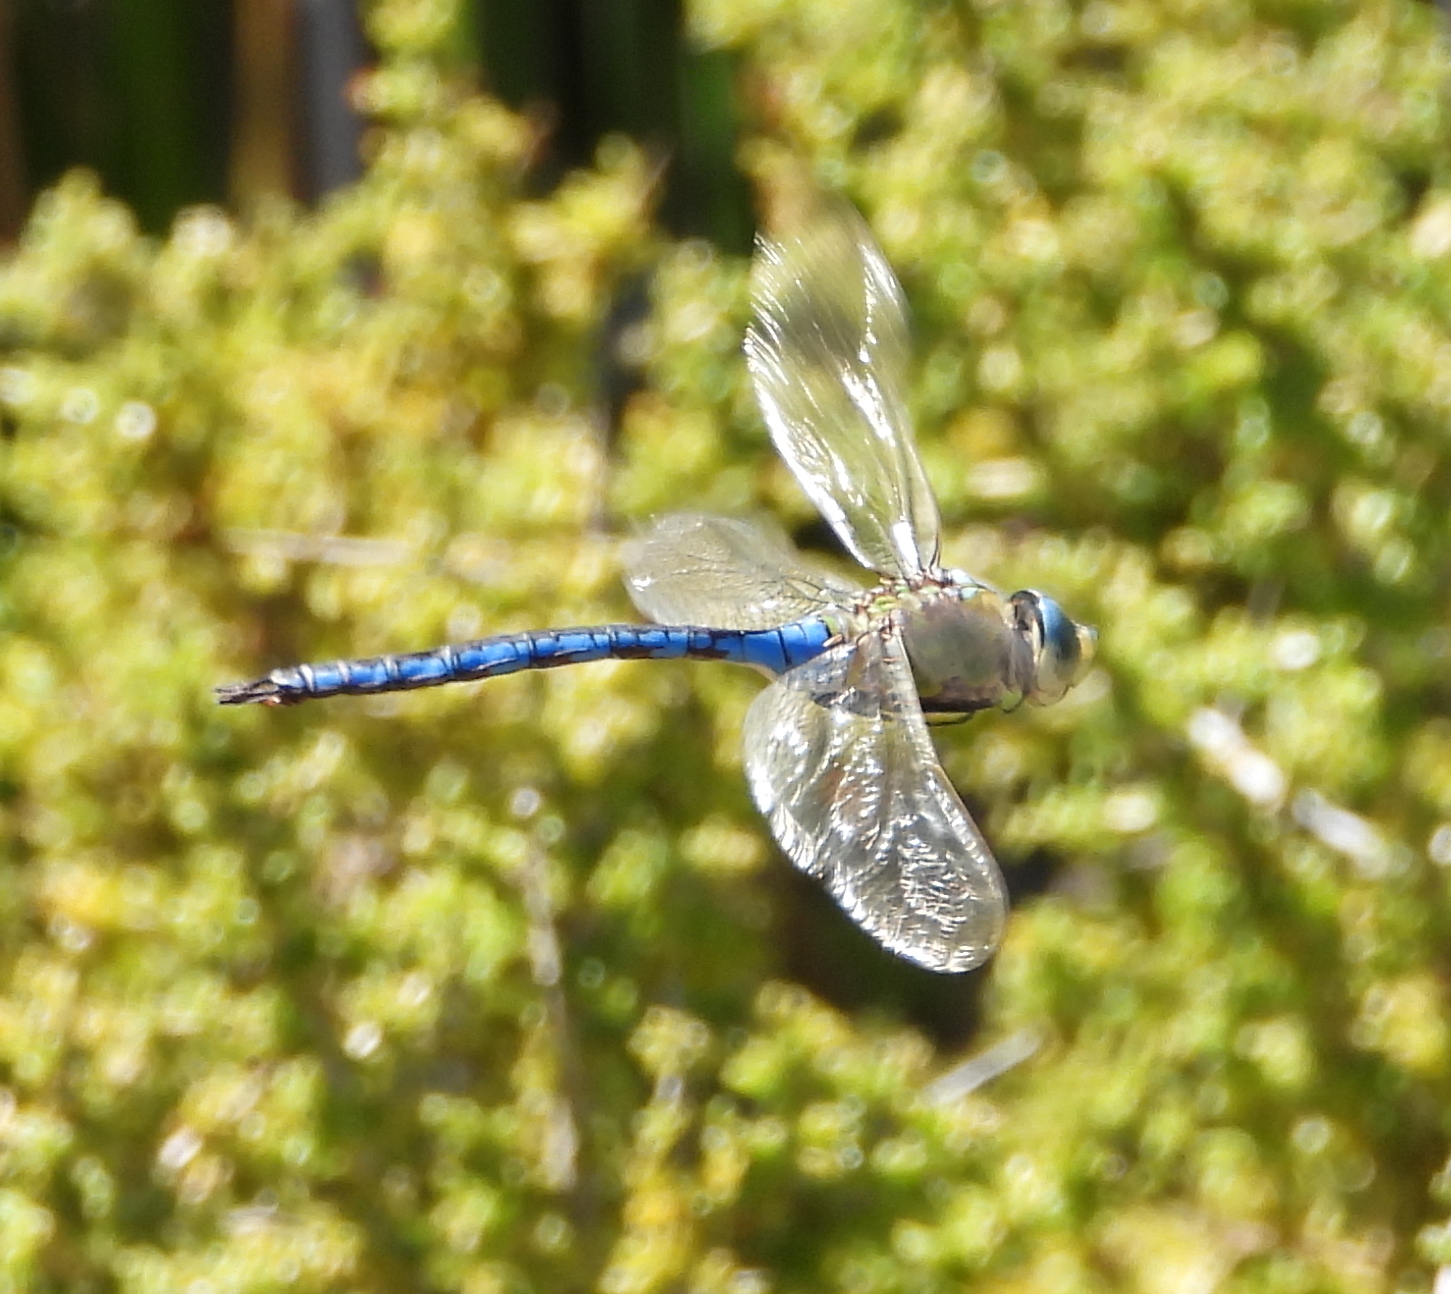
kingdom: Animalia
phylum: Arthropoda
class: Insecta
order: Odonata
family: Aeshnidae
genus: Anax
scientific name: Anax imperator
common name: Emperor dragonfly
